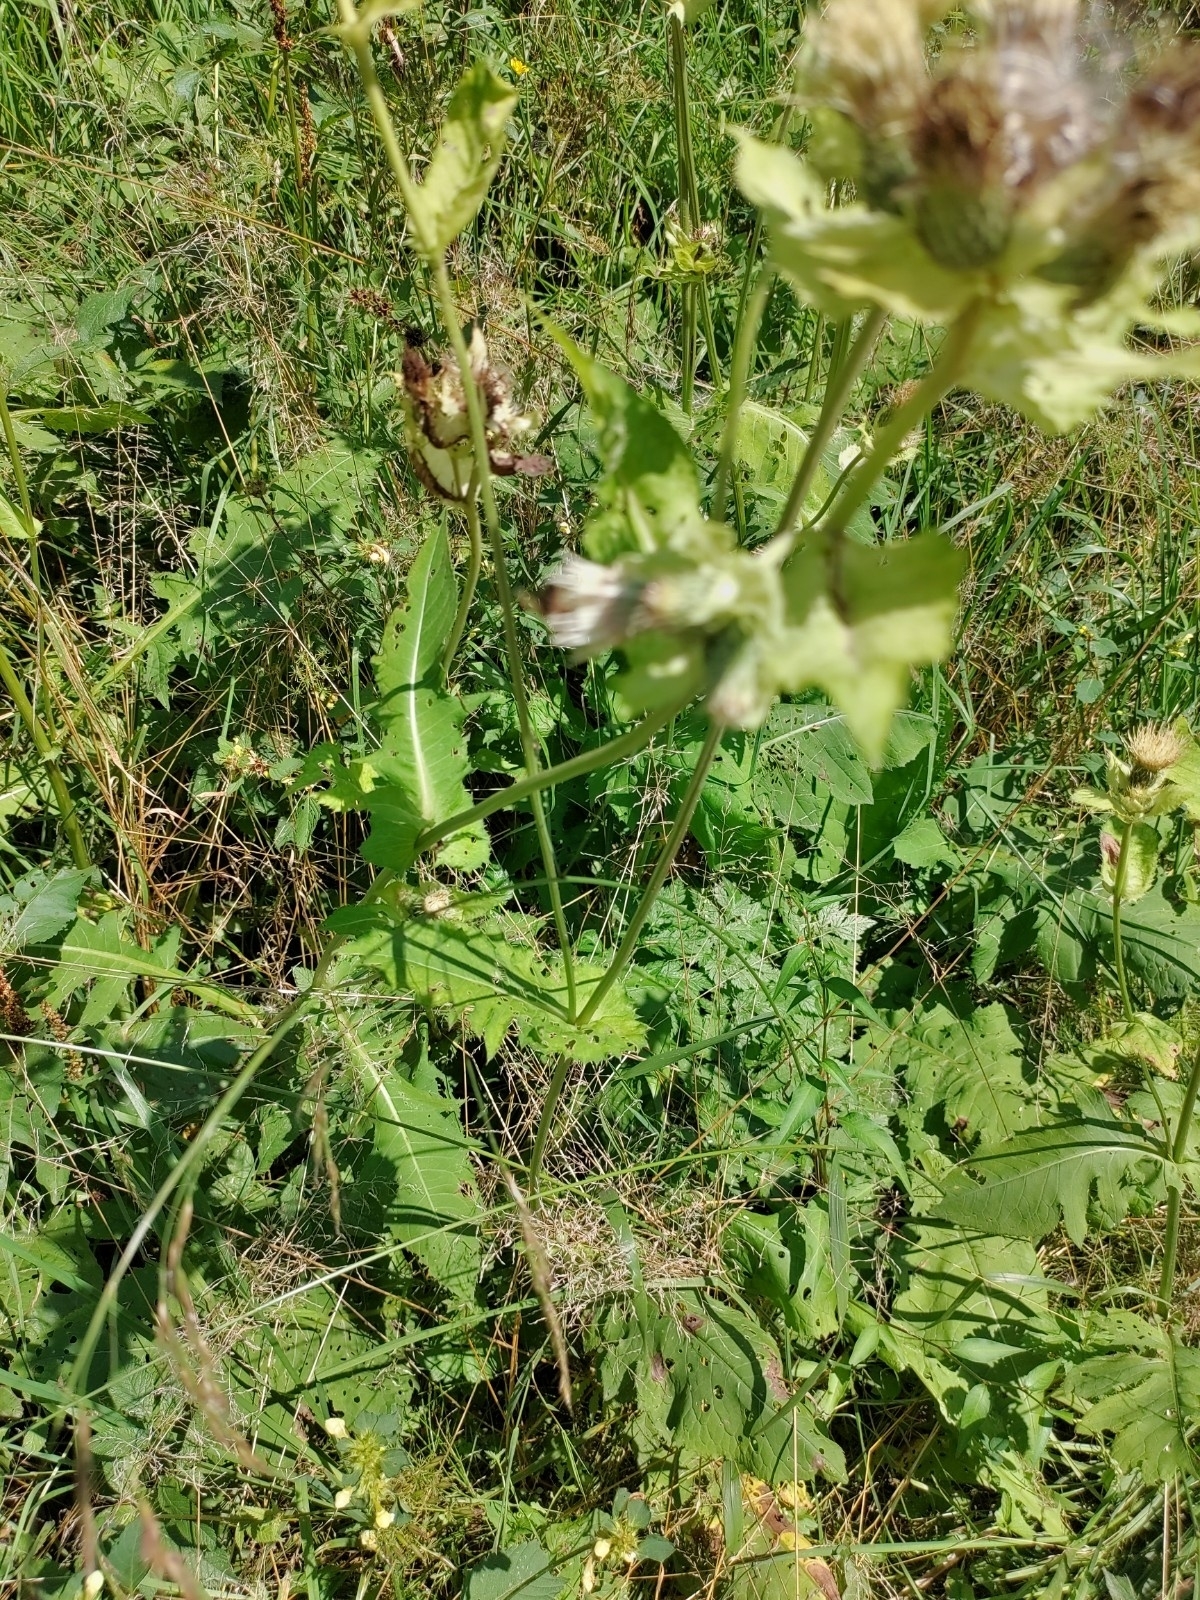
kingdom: Plantae
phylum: Tracheophyta
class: Magnoliopsida
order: Asterales
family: Asteraceae
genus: Cirsium
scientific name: Cirsium oleraceum
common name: Cabbage thistle
